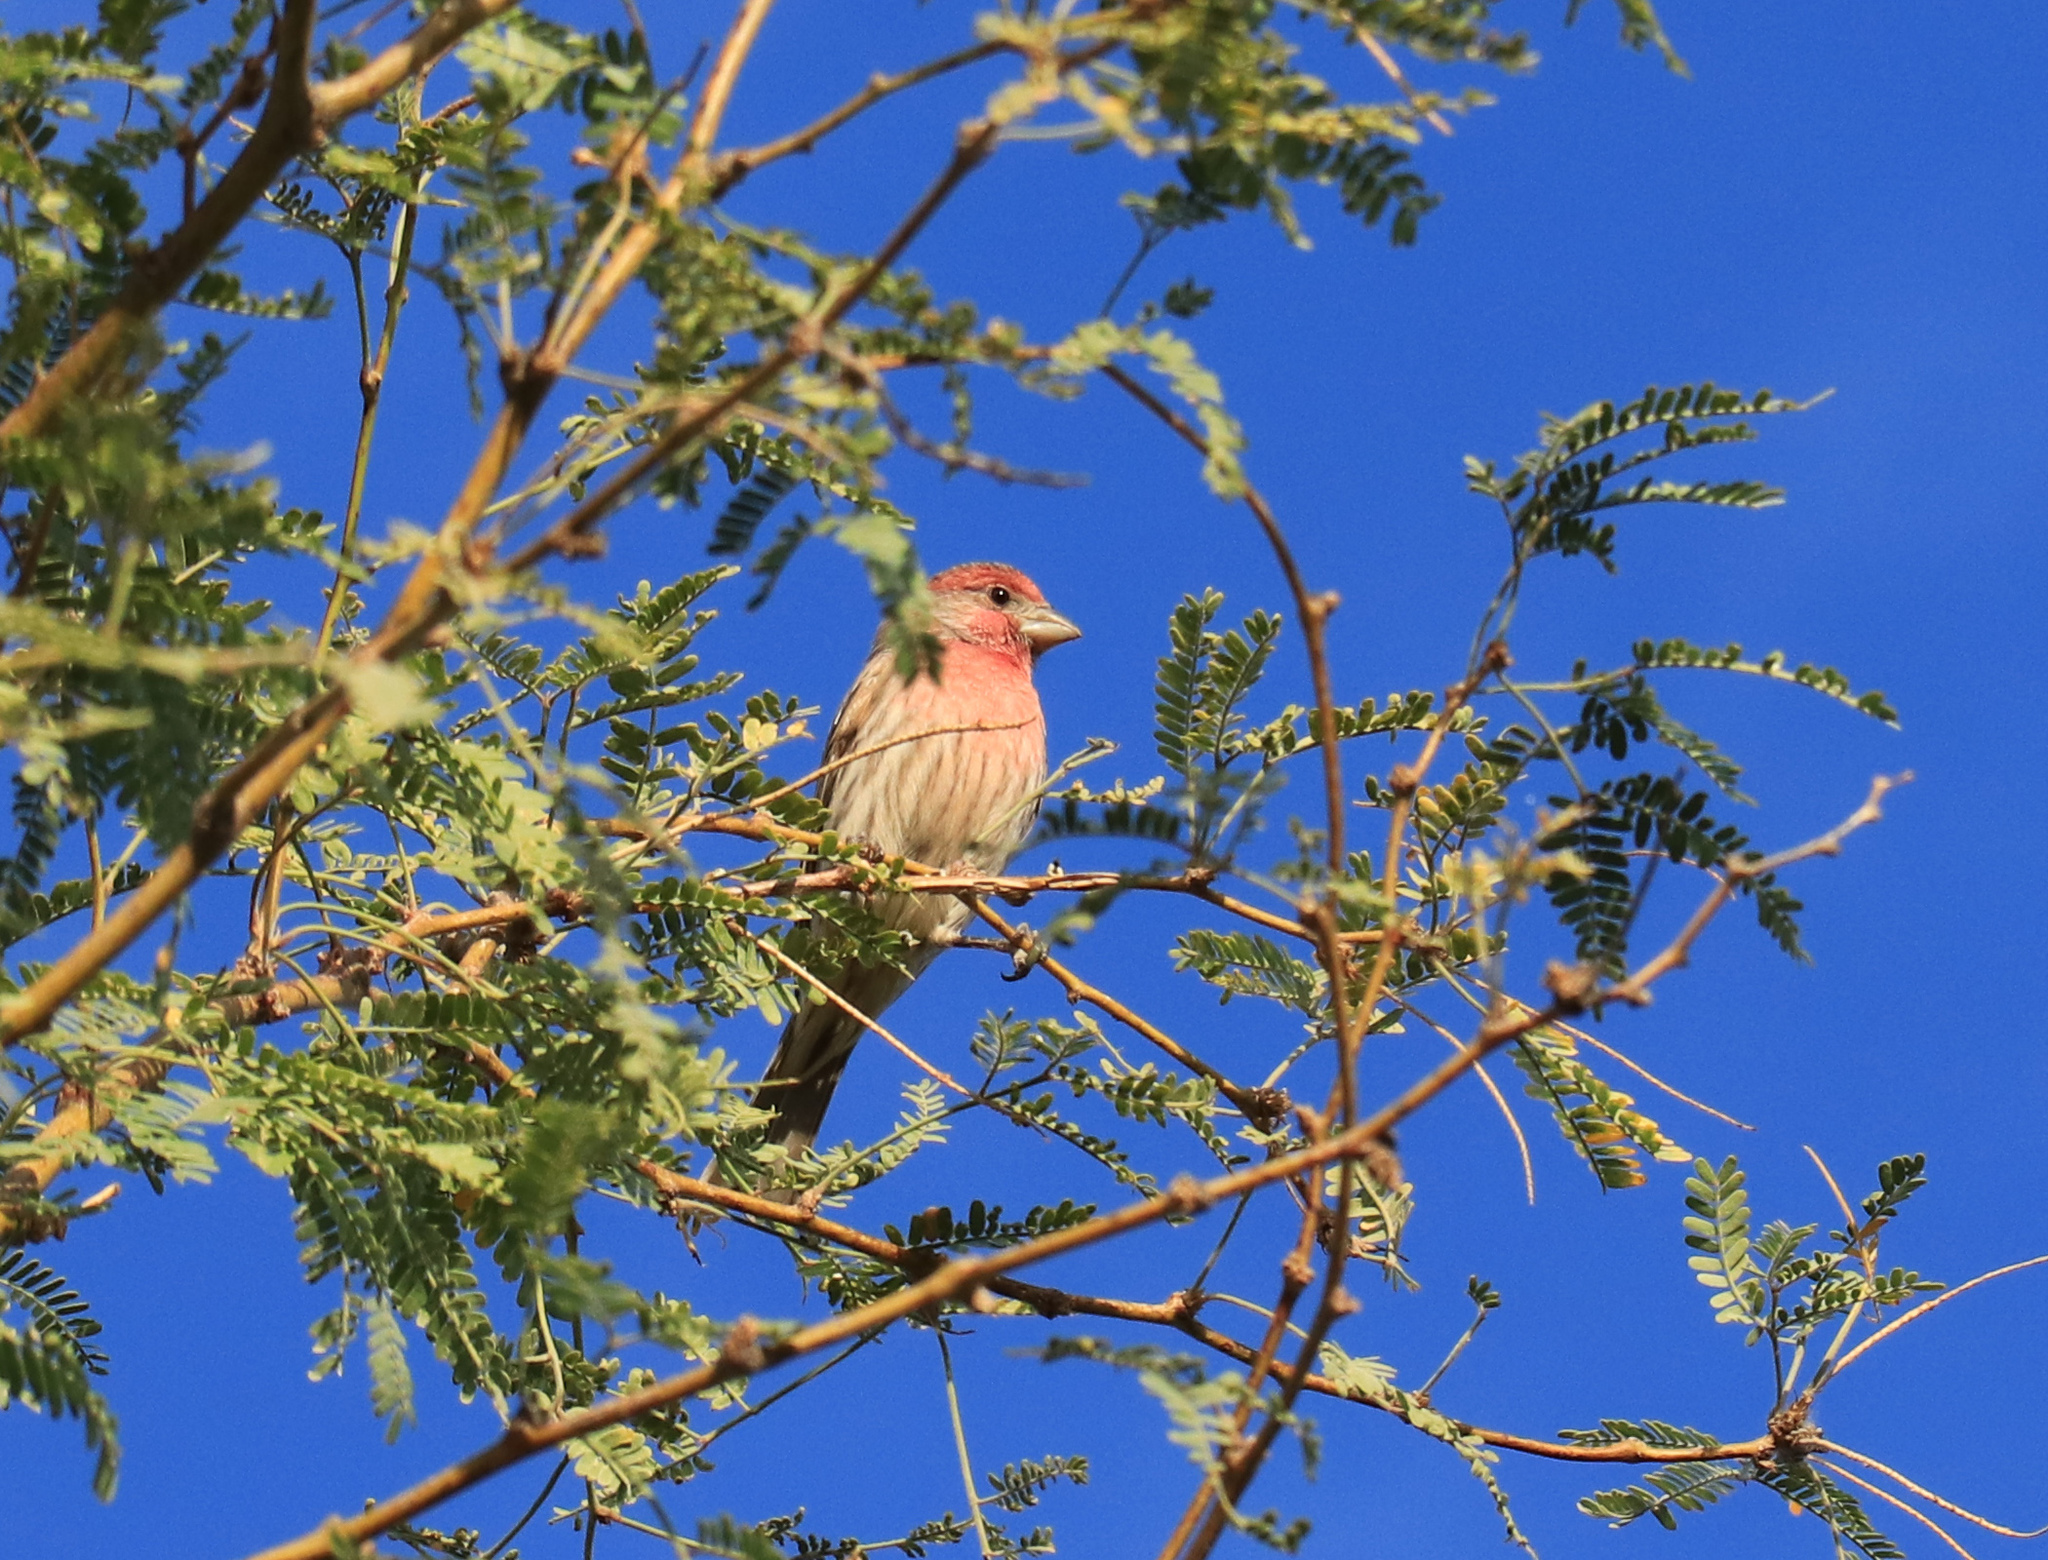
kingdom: Animalia
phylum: Chordata
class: Aves
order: Passeriformes
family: Fringillidae
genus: Haemorhous
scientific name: Haemorhous mexicanus
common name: House finch
